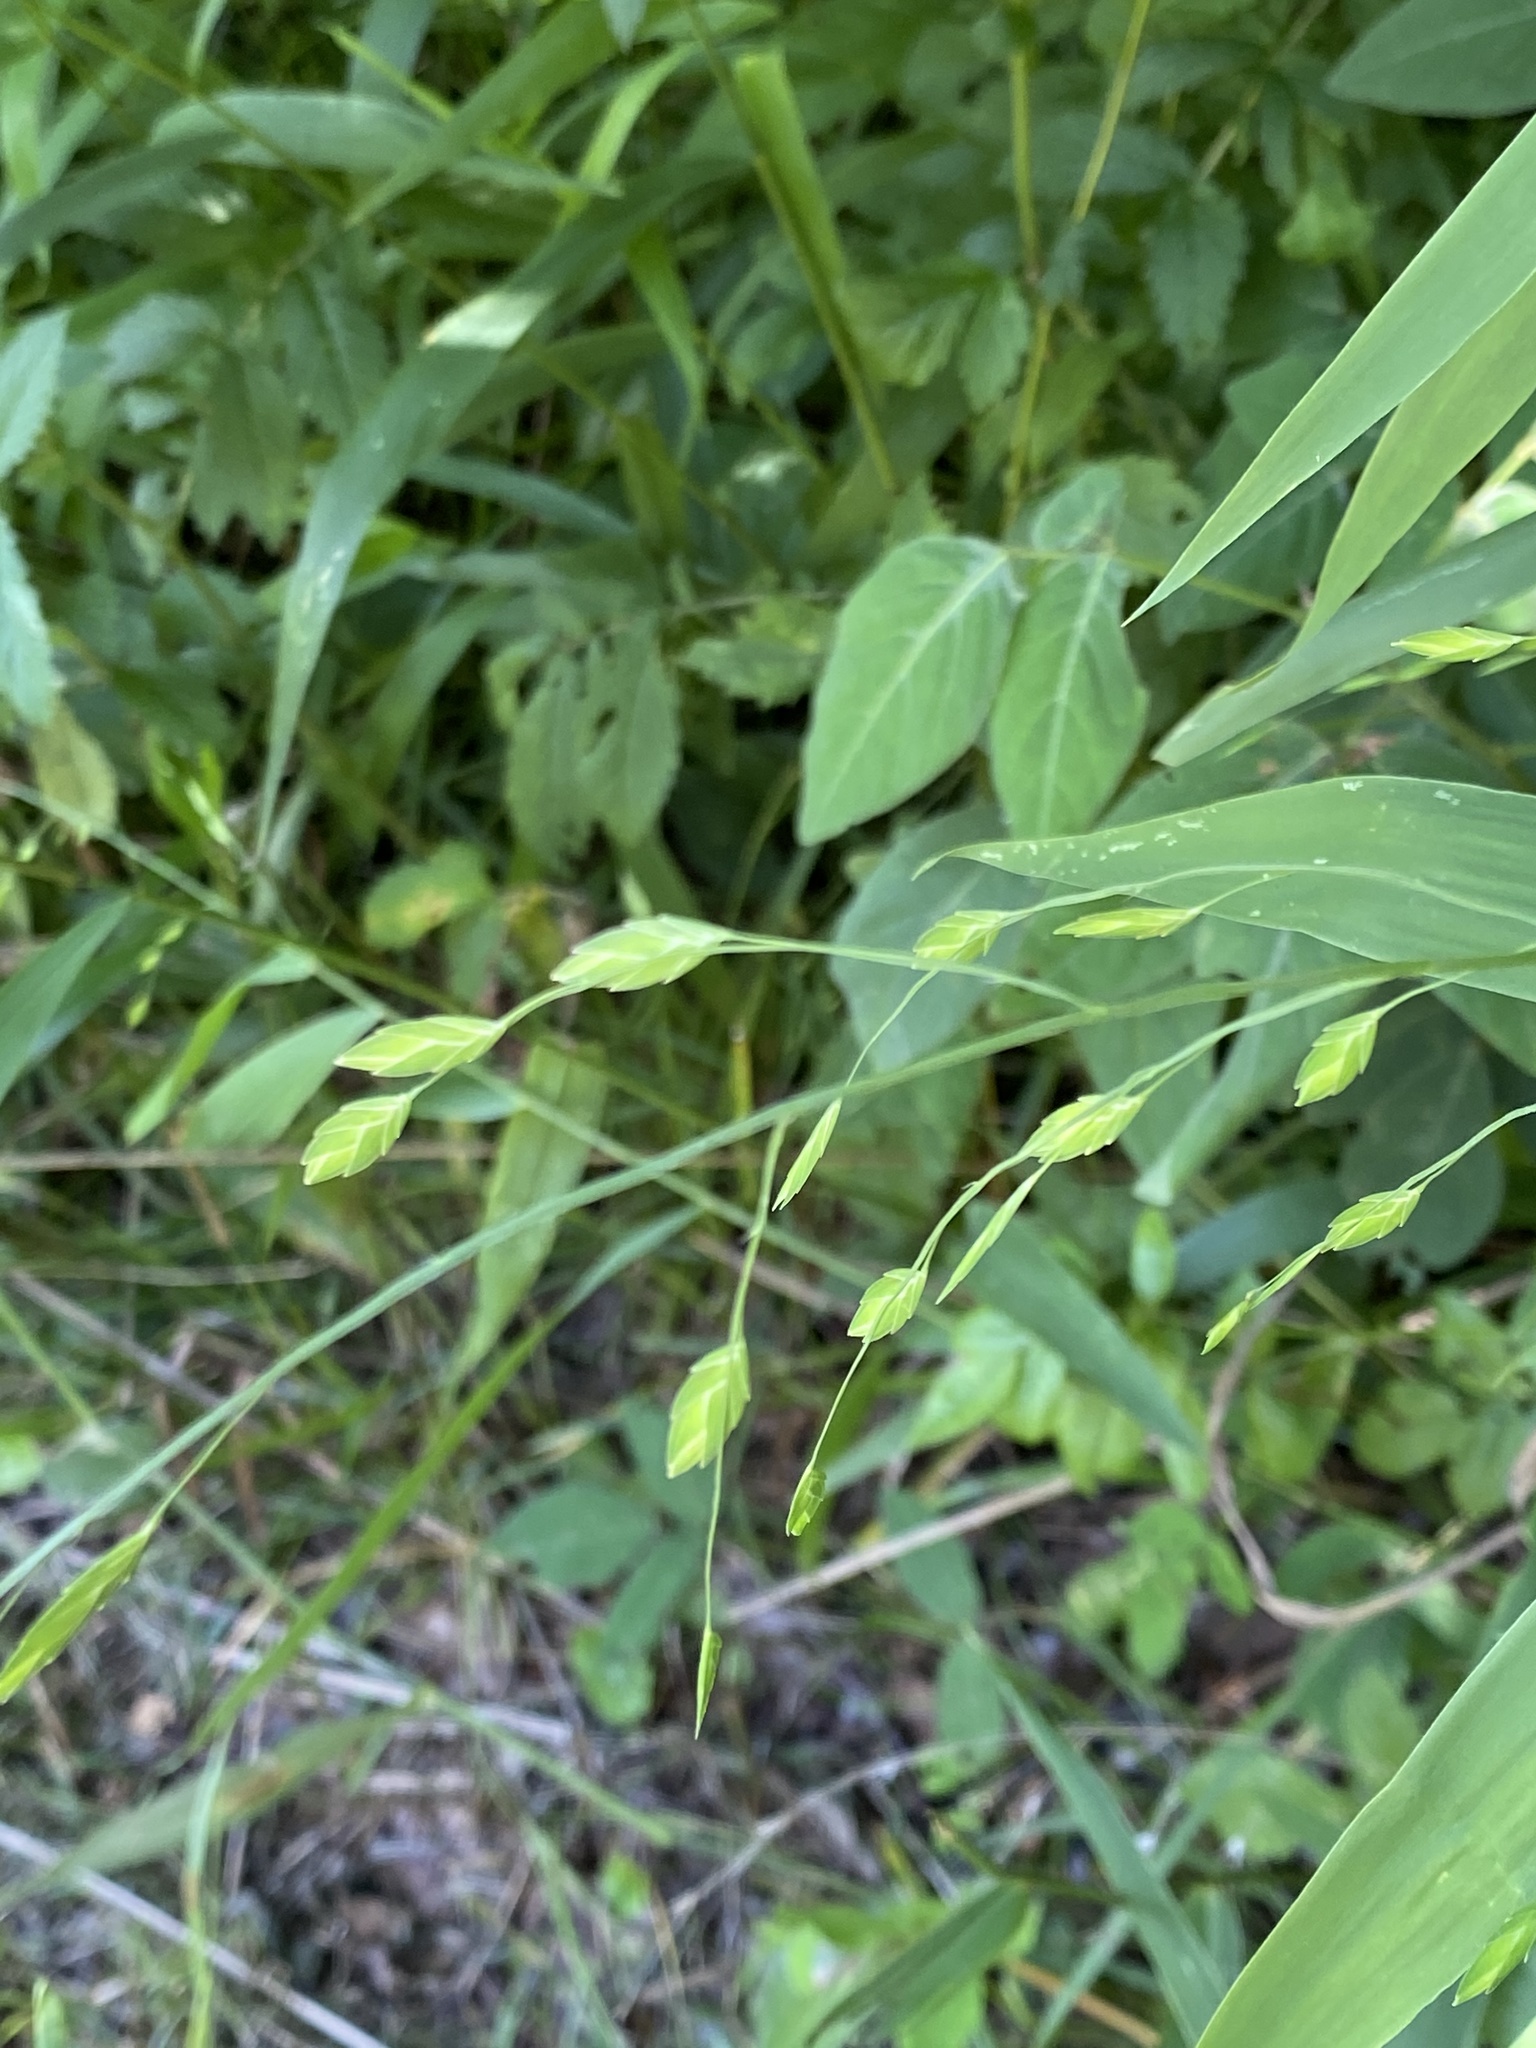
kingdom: Plantae
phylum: Tracheophyta
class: Liliopsida
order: Poales
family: Poaceae
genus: Chasmanthium
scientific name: Chasmanthium latifolium
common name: Broad-leaved chasmanthium
